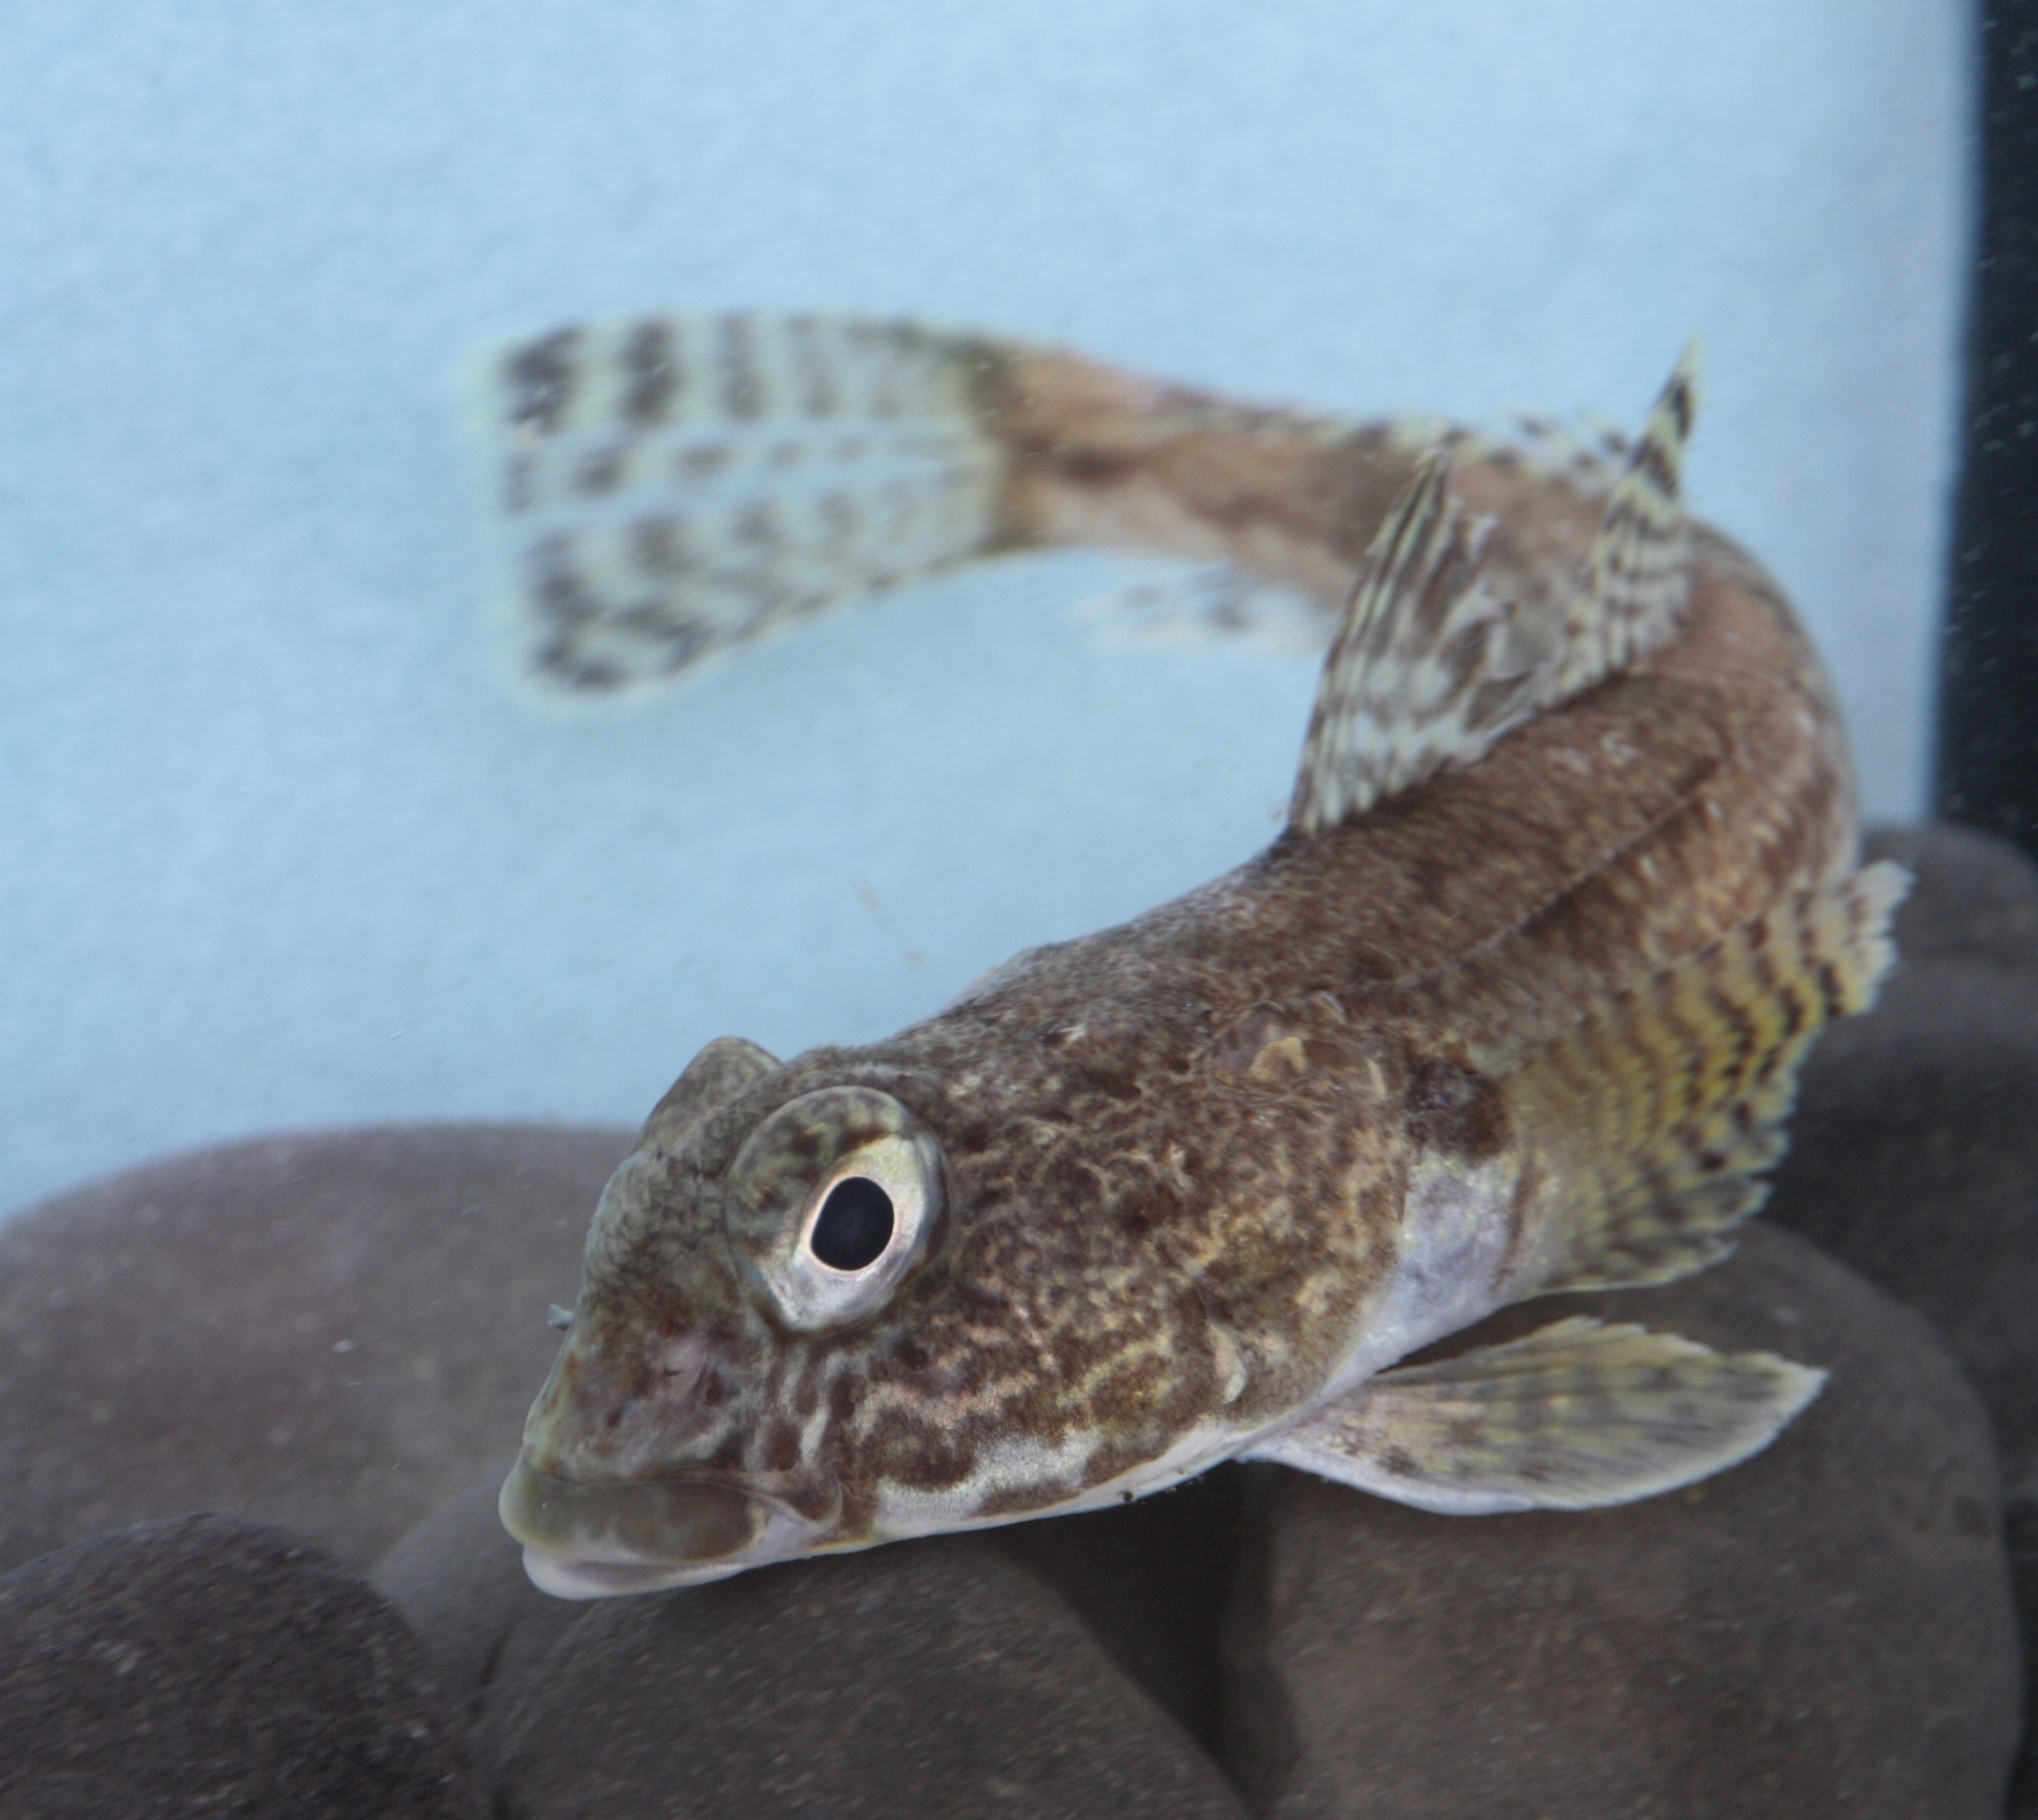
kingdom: Animalia
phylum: Chordata
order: Perciformes
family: Nototheniidae
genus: Gobionotothen
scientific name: Gobionotothen gibberifrons
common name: Humped rockcod
